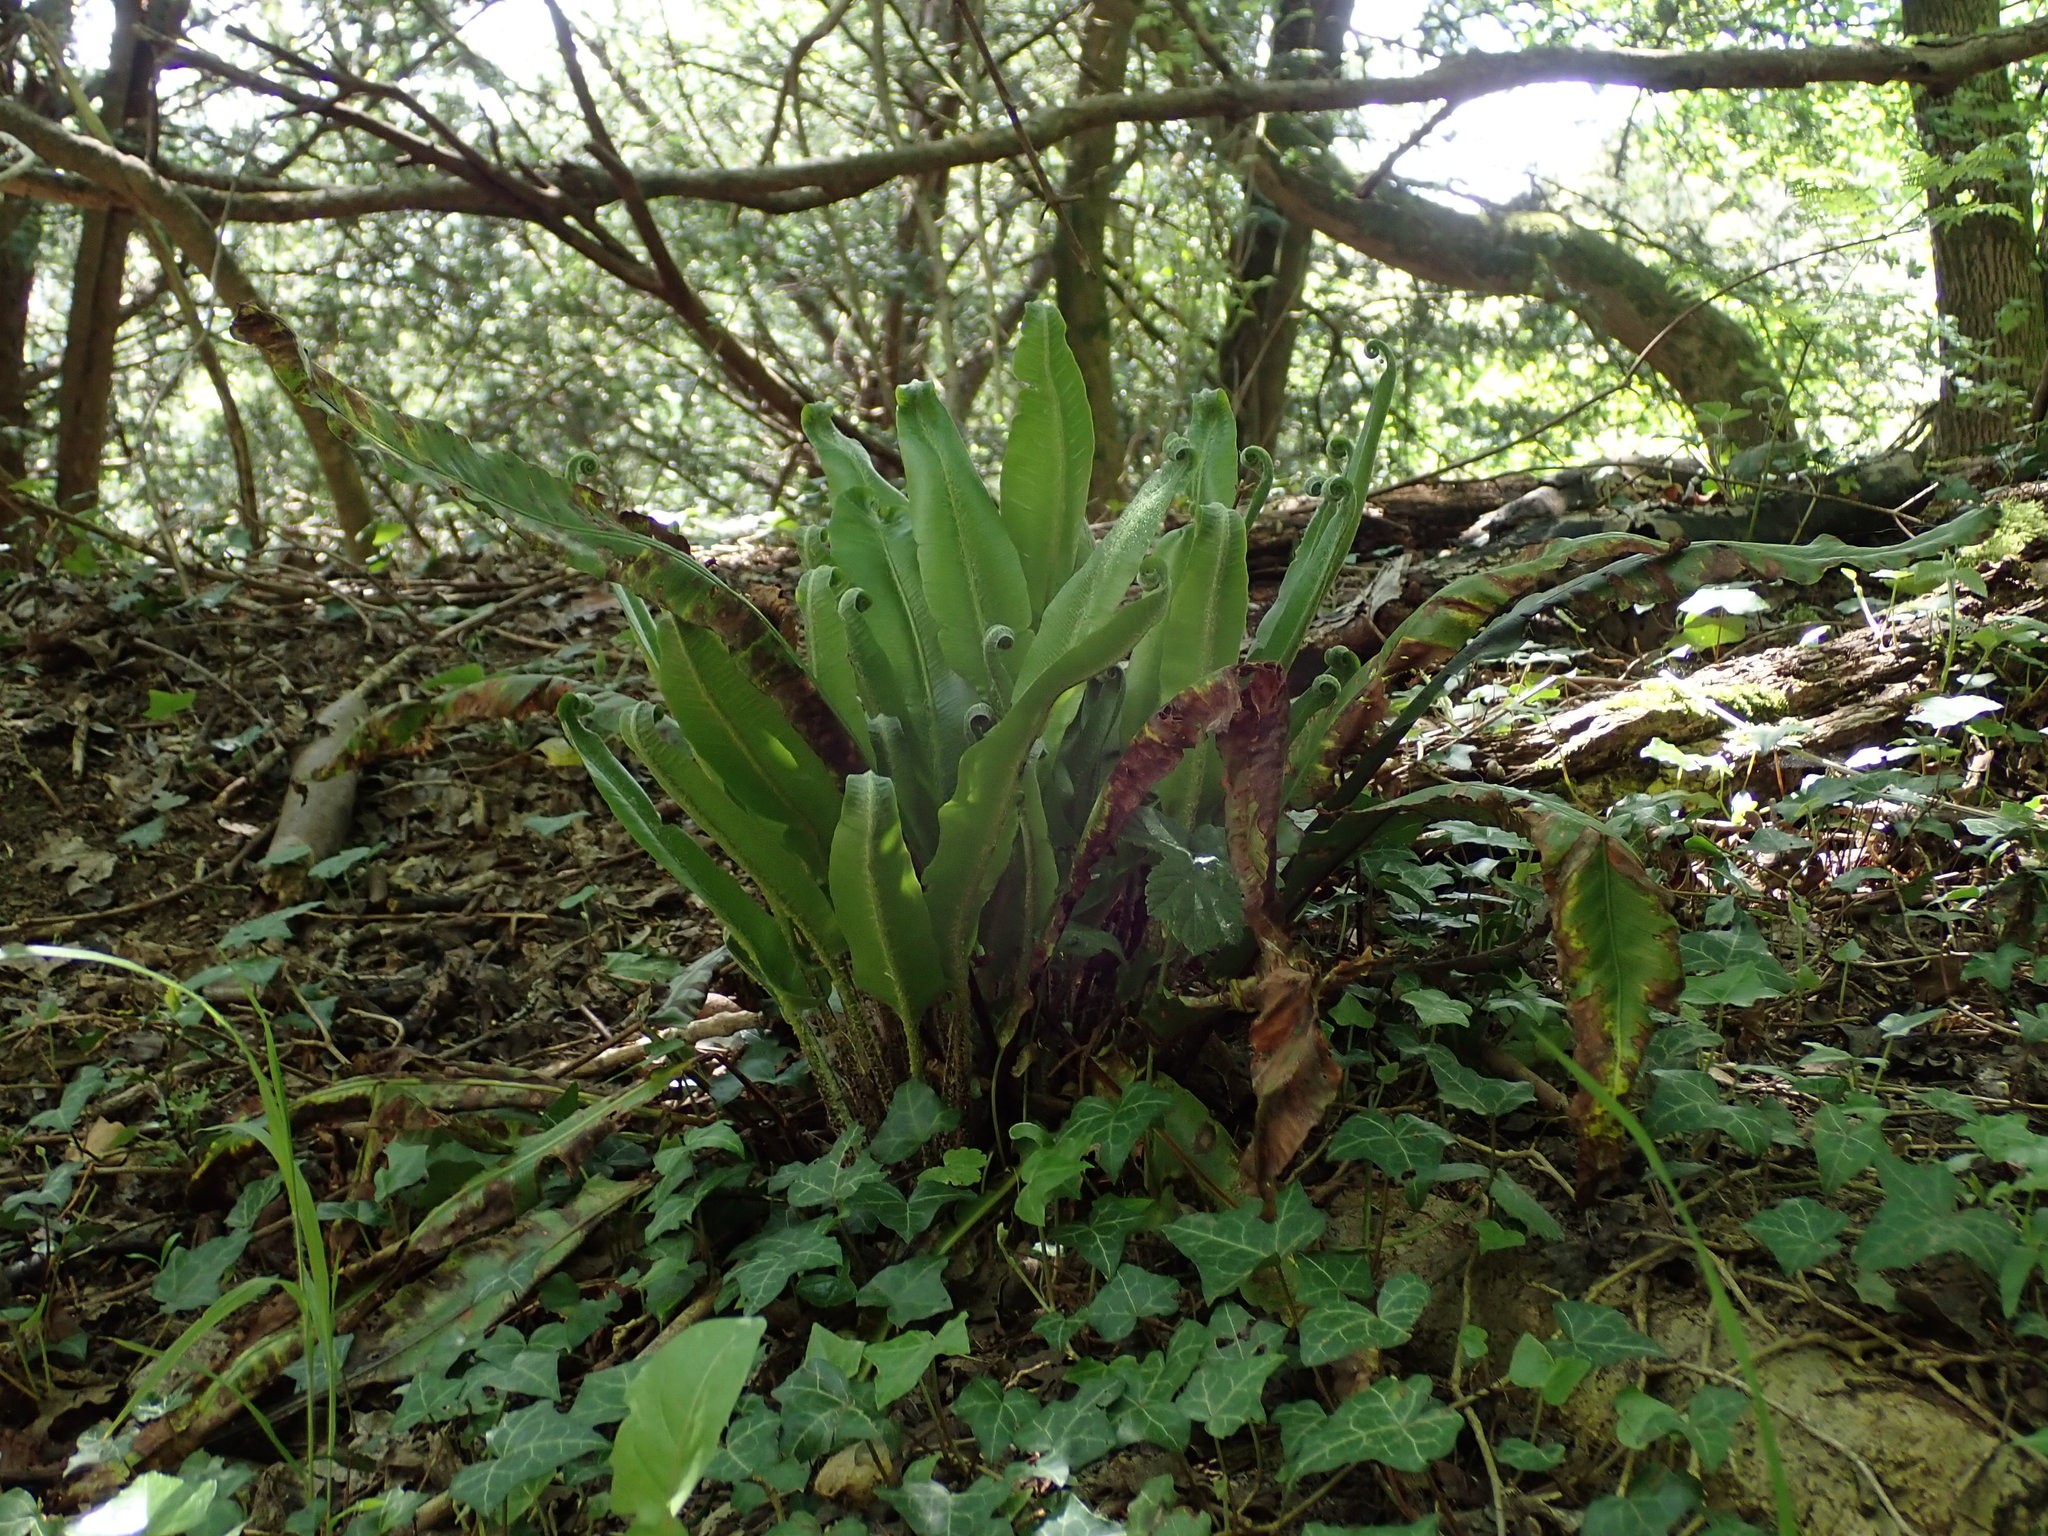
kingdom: Plantae
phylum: Tracheophyta
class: Polypodiopsida
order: Polypodiales
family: Aspleniaceae
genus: Asplenium
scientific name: Asplenium scolopendrium
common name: Hart's-tongue fern
